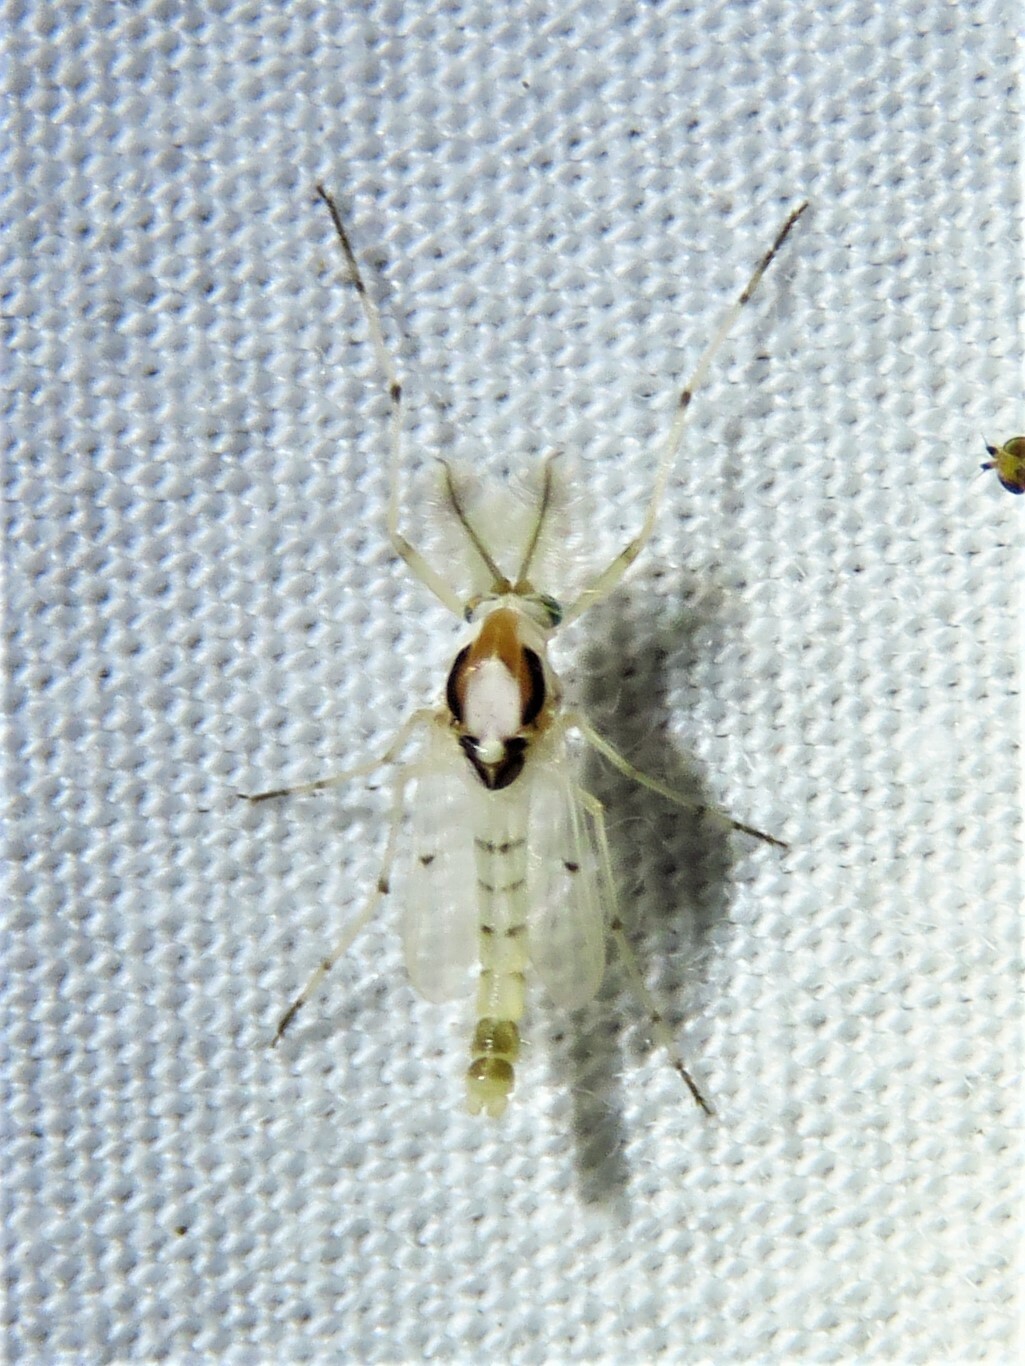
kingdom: Animalia
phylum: Arthropoda
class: Insecta
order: Diptera
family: Chironomidae
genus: Coelotanypus
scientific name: Coelotanypus concinnus
